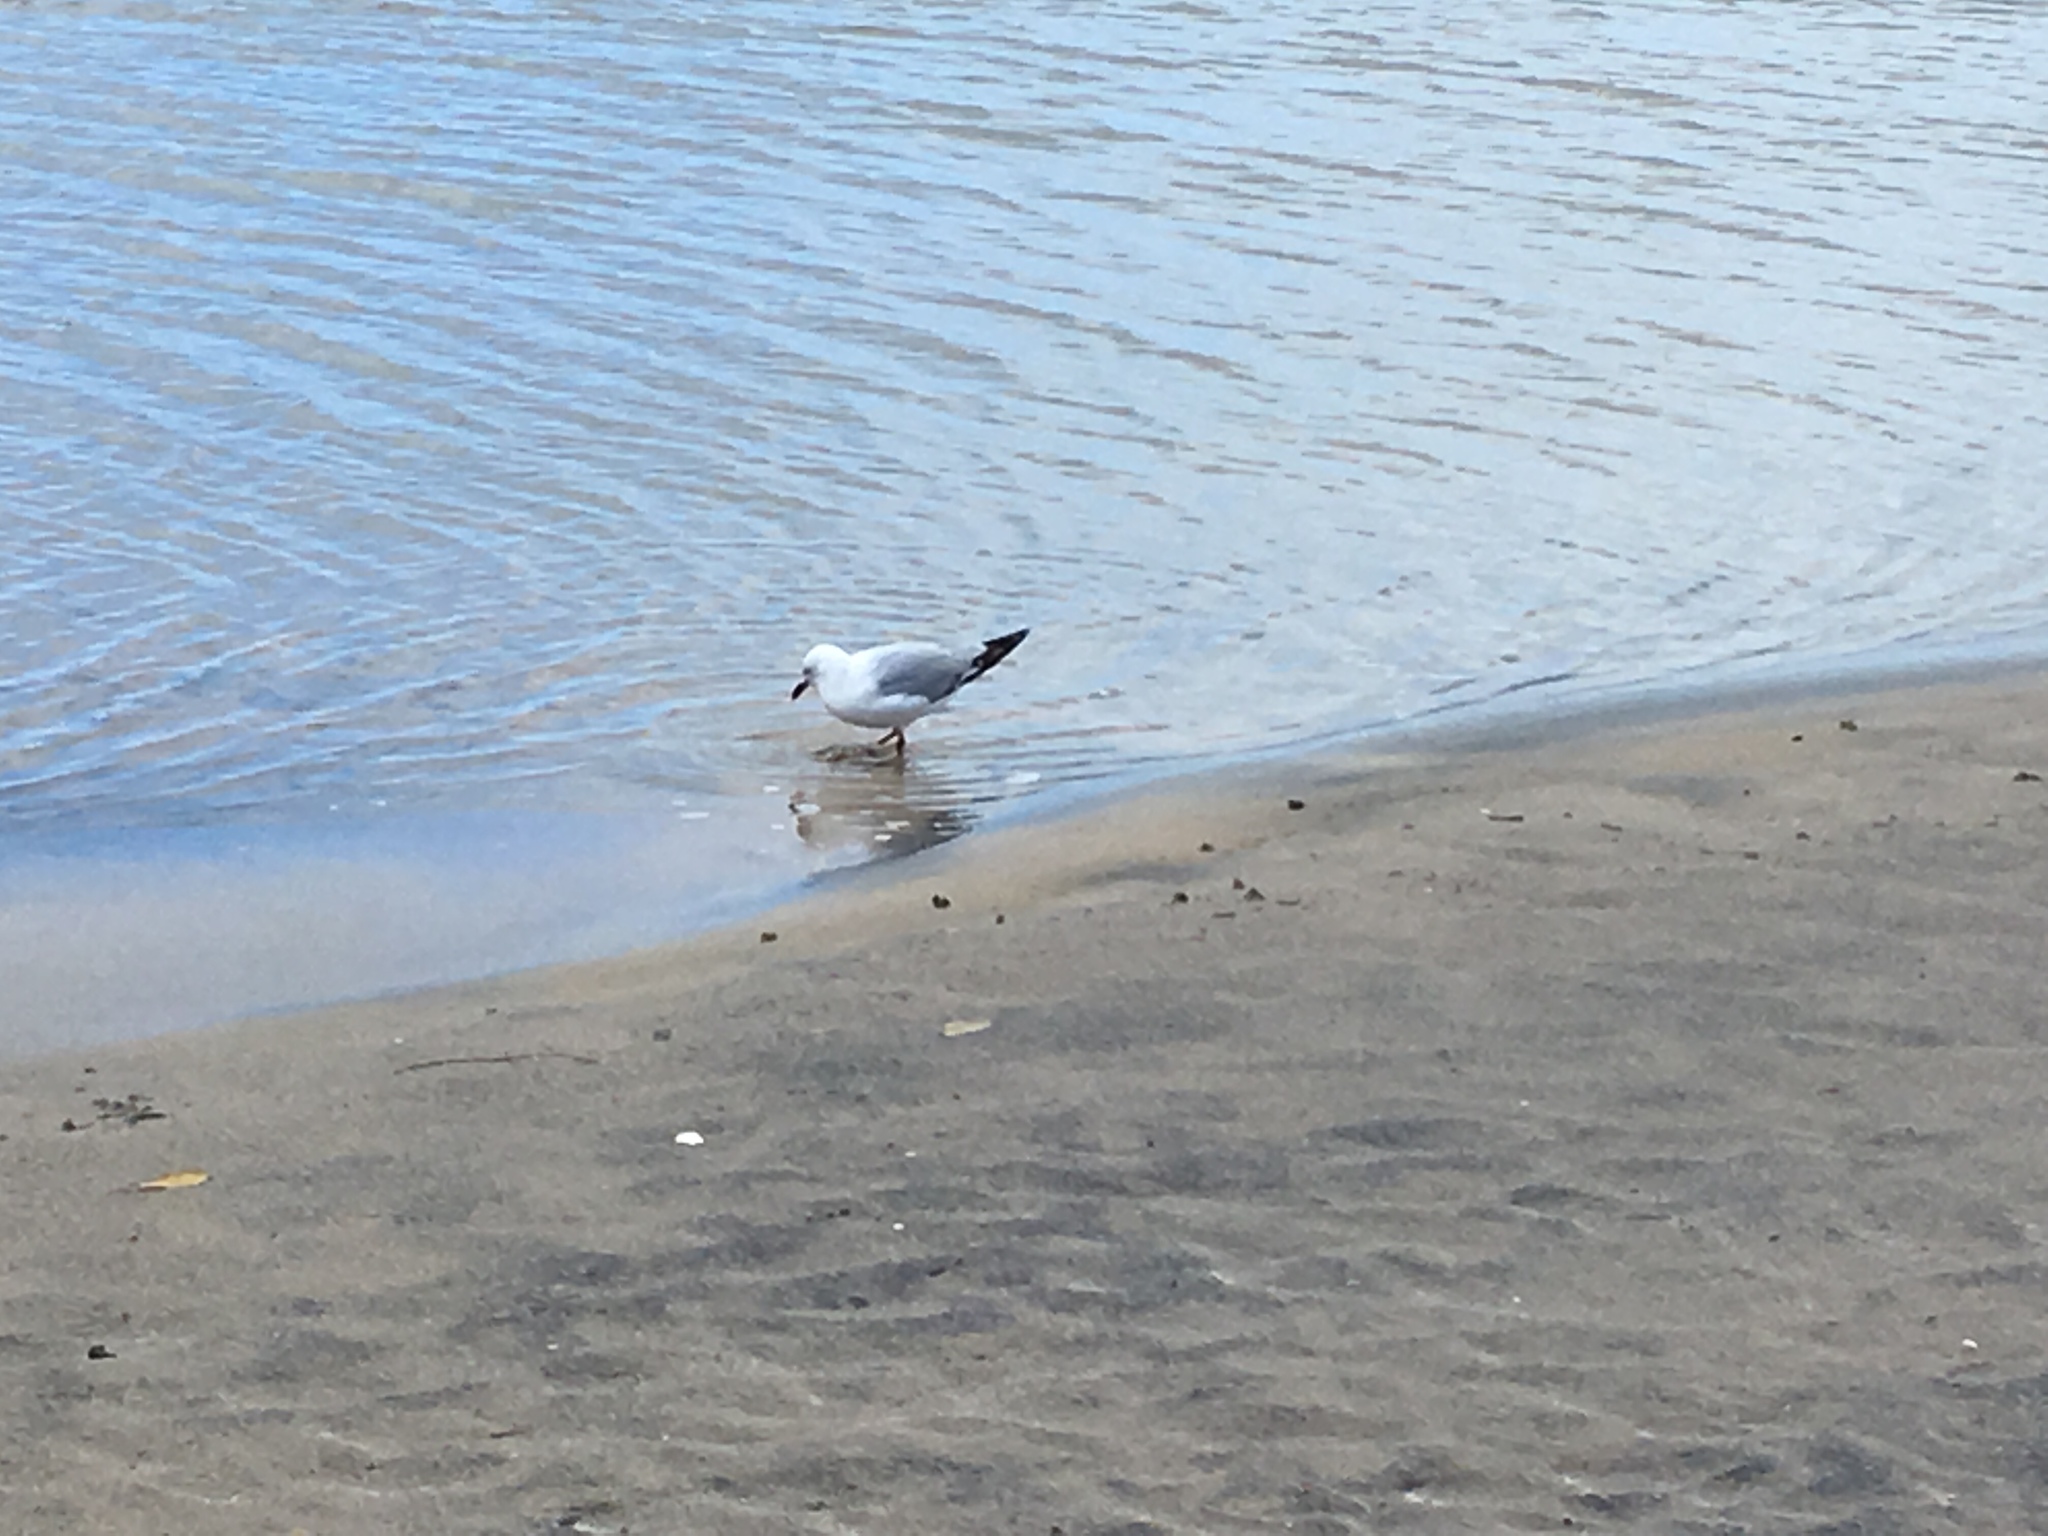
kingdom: Animalia
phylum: Chordata
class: Aves
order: Charadriiformes
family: Laridae
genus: Chroicocephalus
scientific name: Chroicocephalus novaehollandiae
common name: Silver gull
